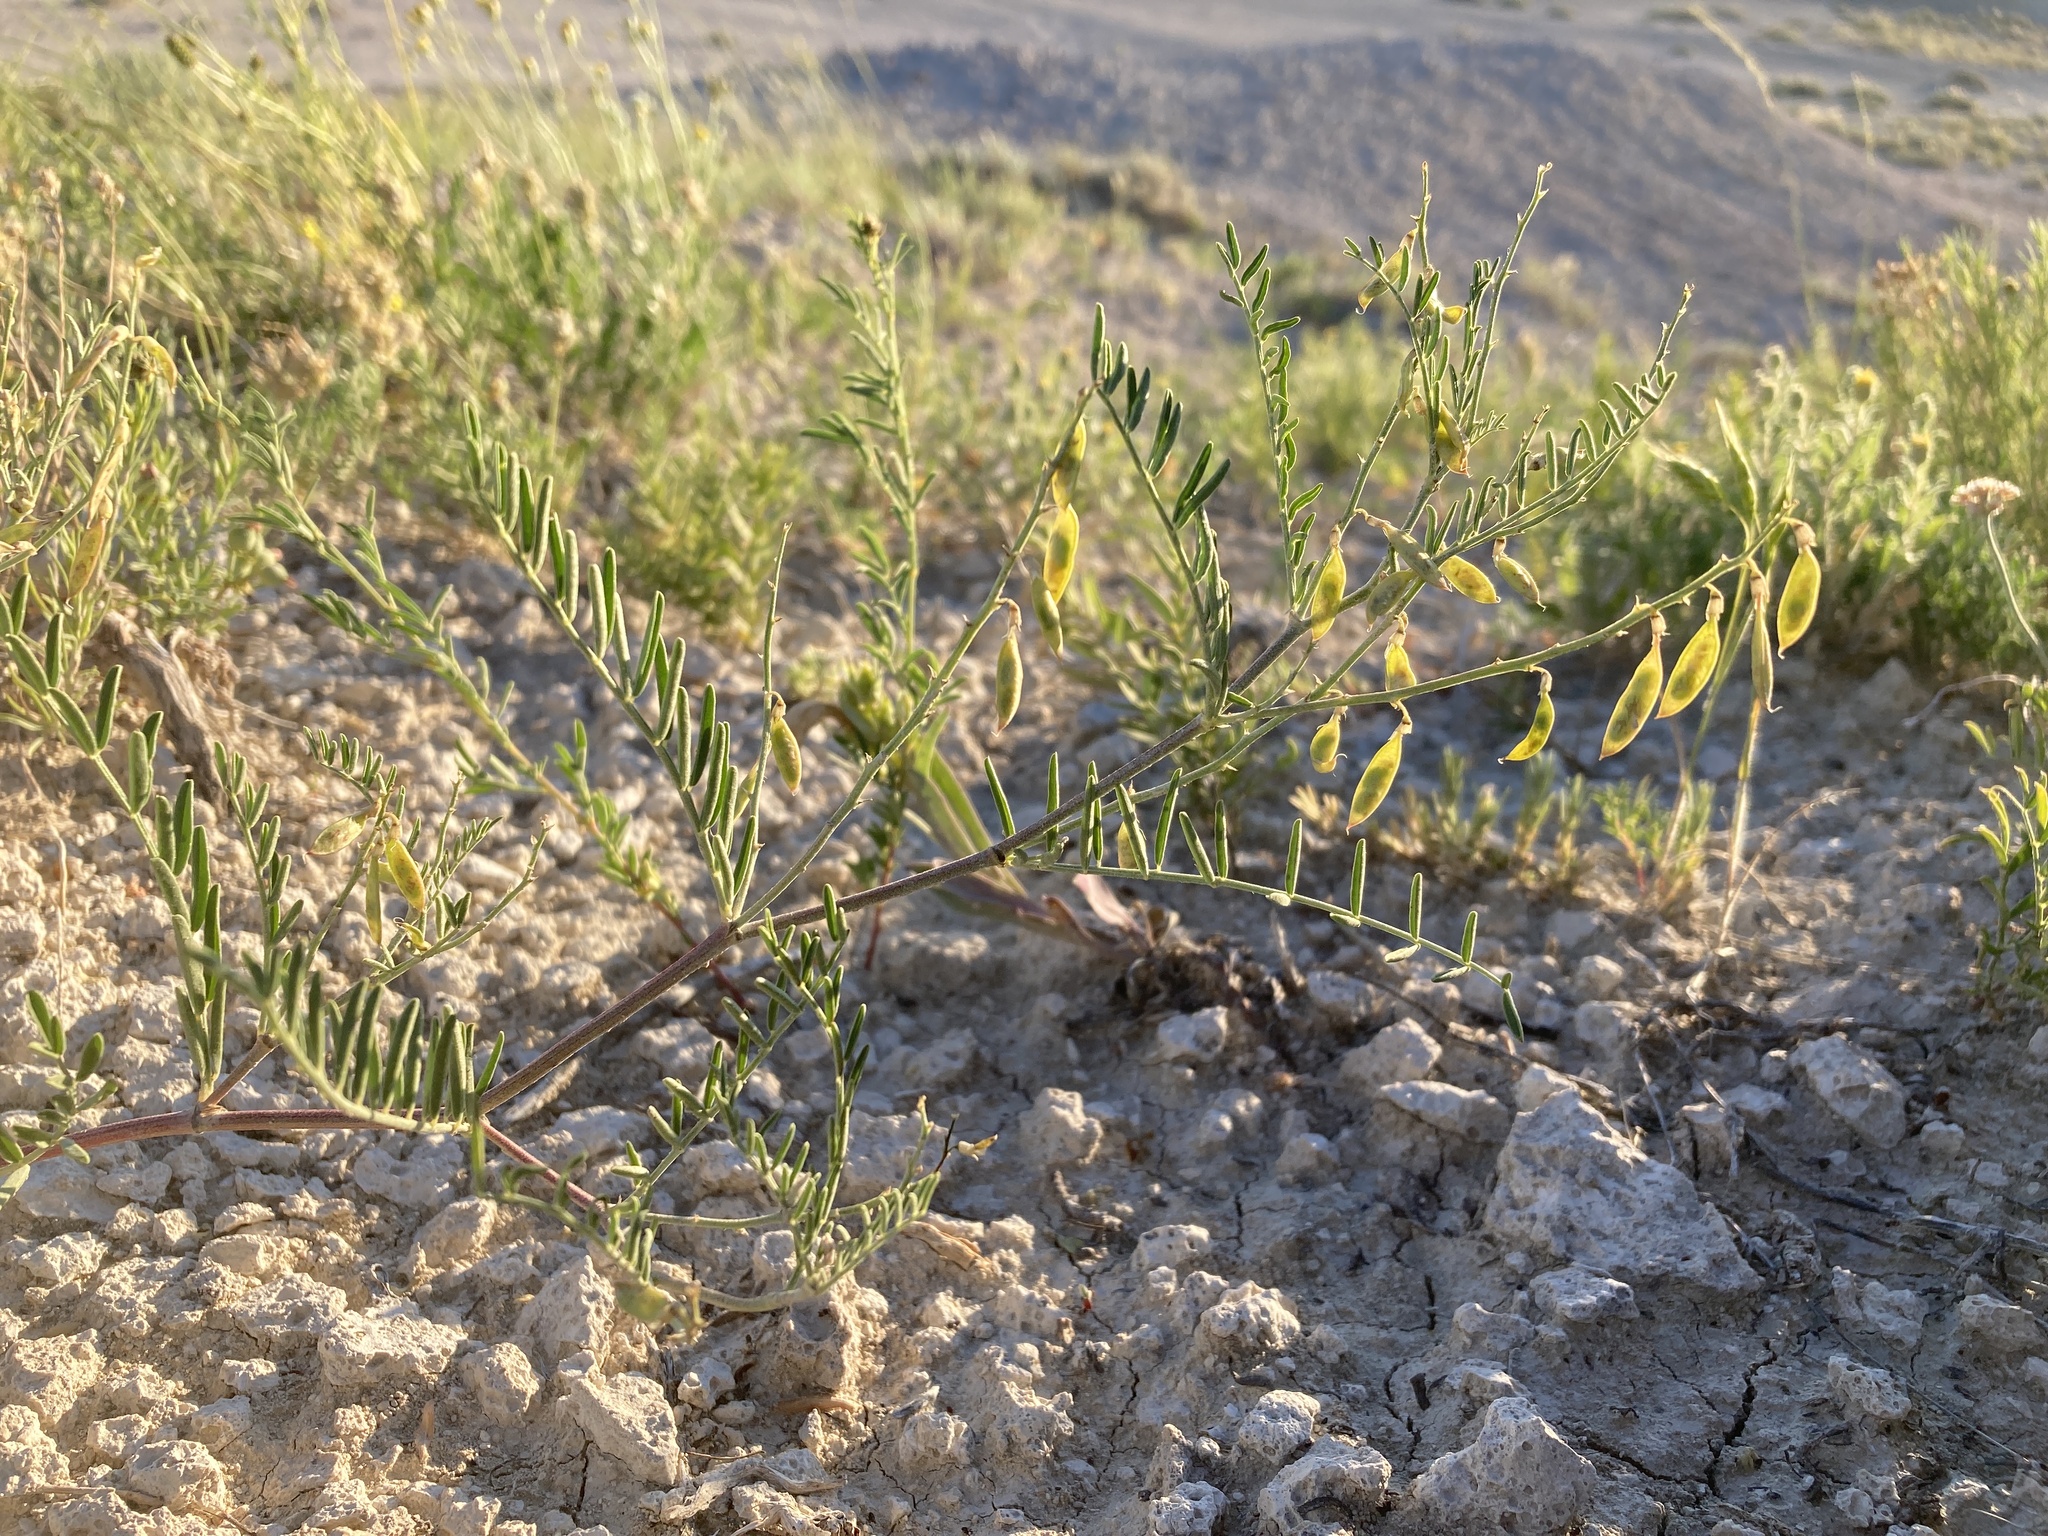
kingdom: Plantae
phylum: Tracheophyta
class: Magnoliopsida
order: Fabales
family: Fabaceae
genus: Astragalus
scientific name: Astragalus gracilis
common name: Slender milk-vetch
